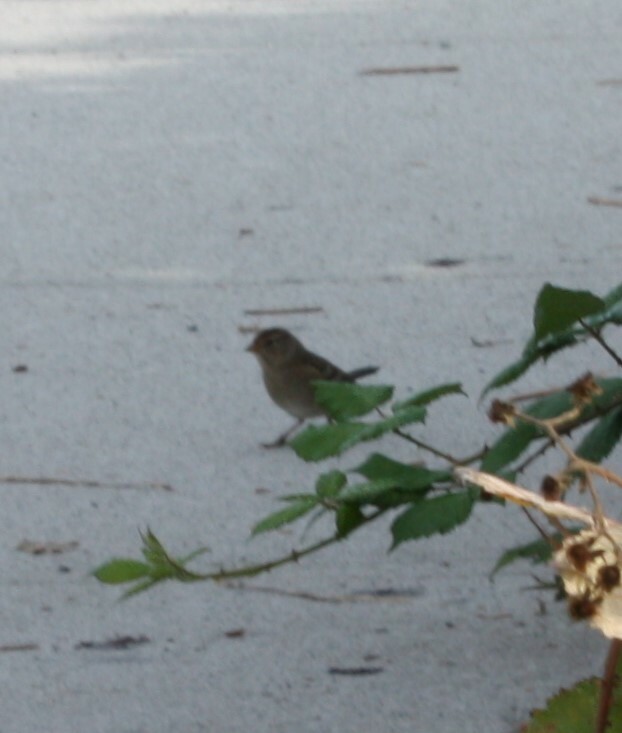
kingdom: Animalia
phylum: Chordata
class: Aves
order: Passeriformes
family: Passerellidae
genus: Zonotrichia
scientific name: Zonotrichia atricapilla
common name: Golden-crowned sparrow
